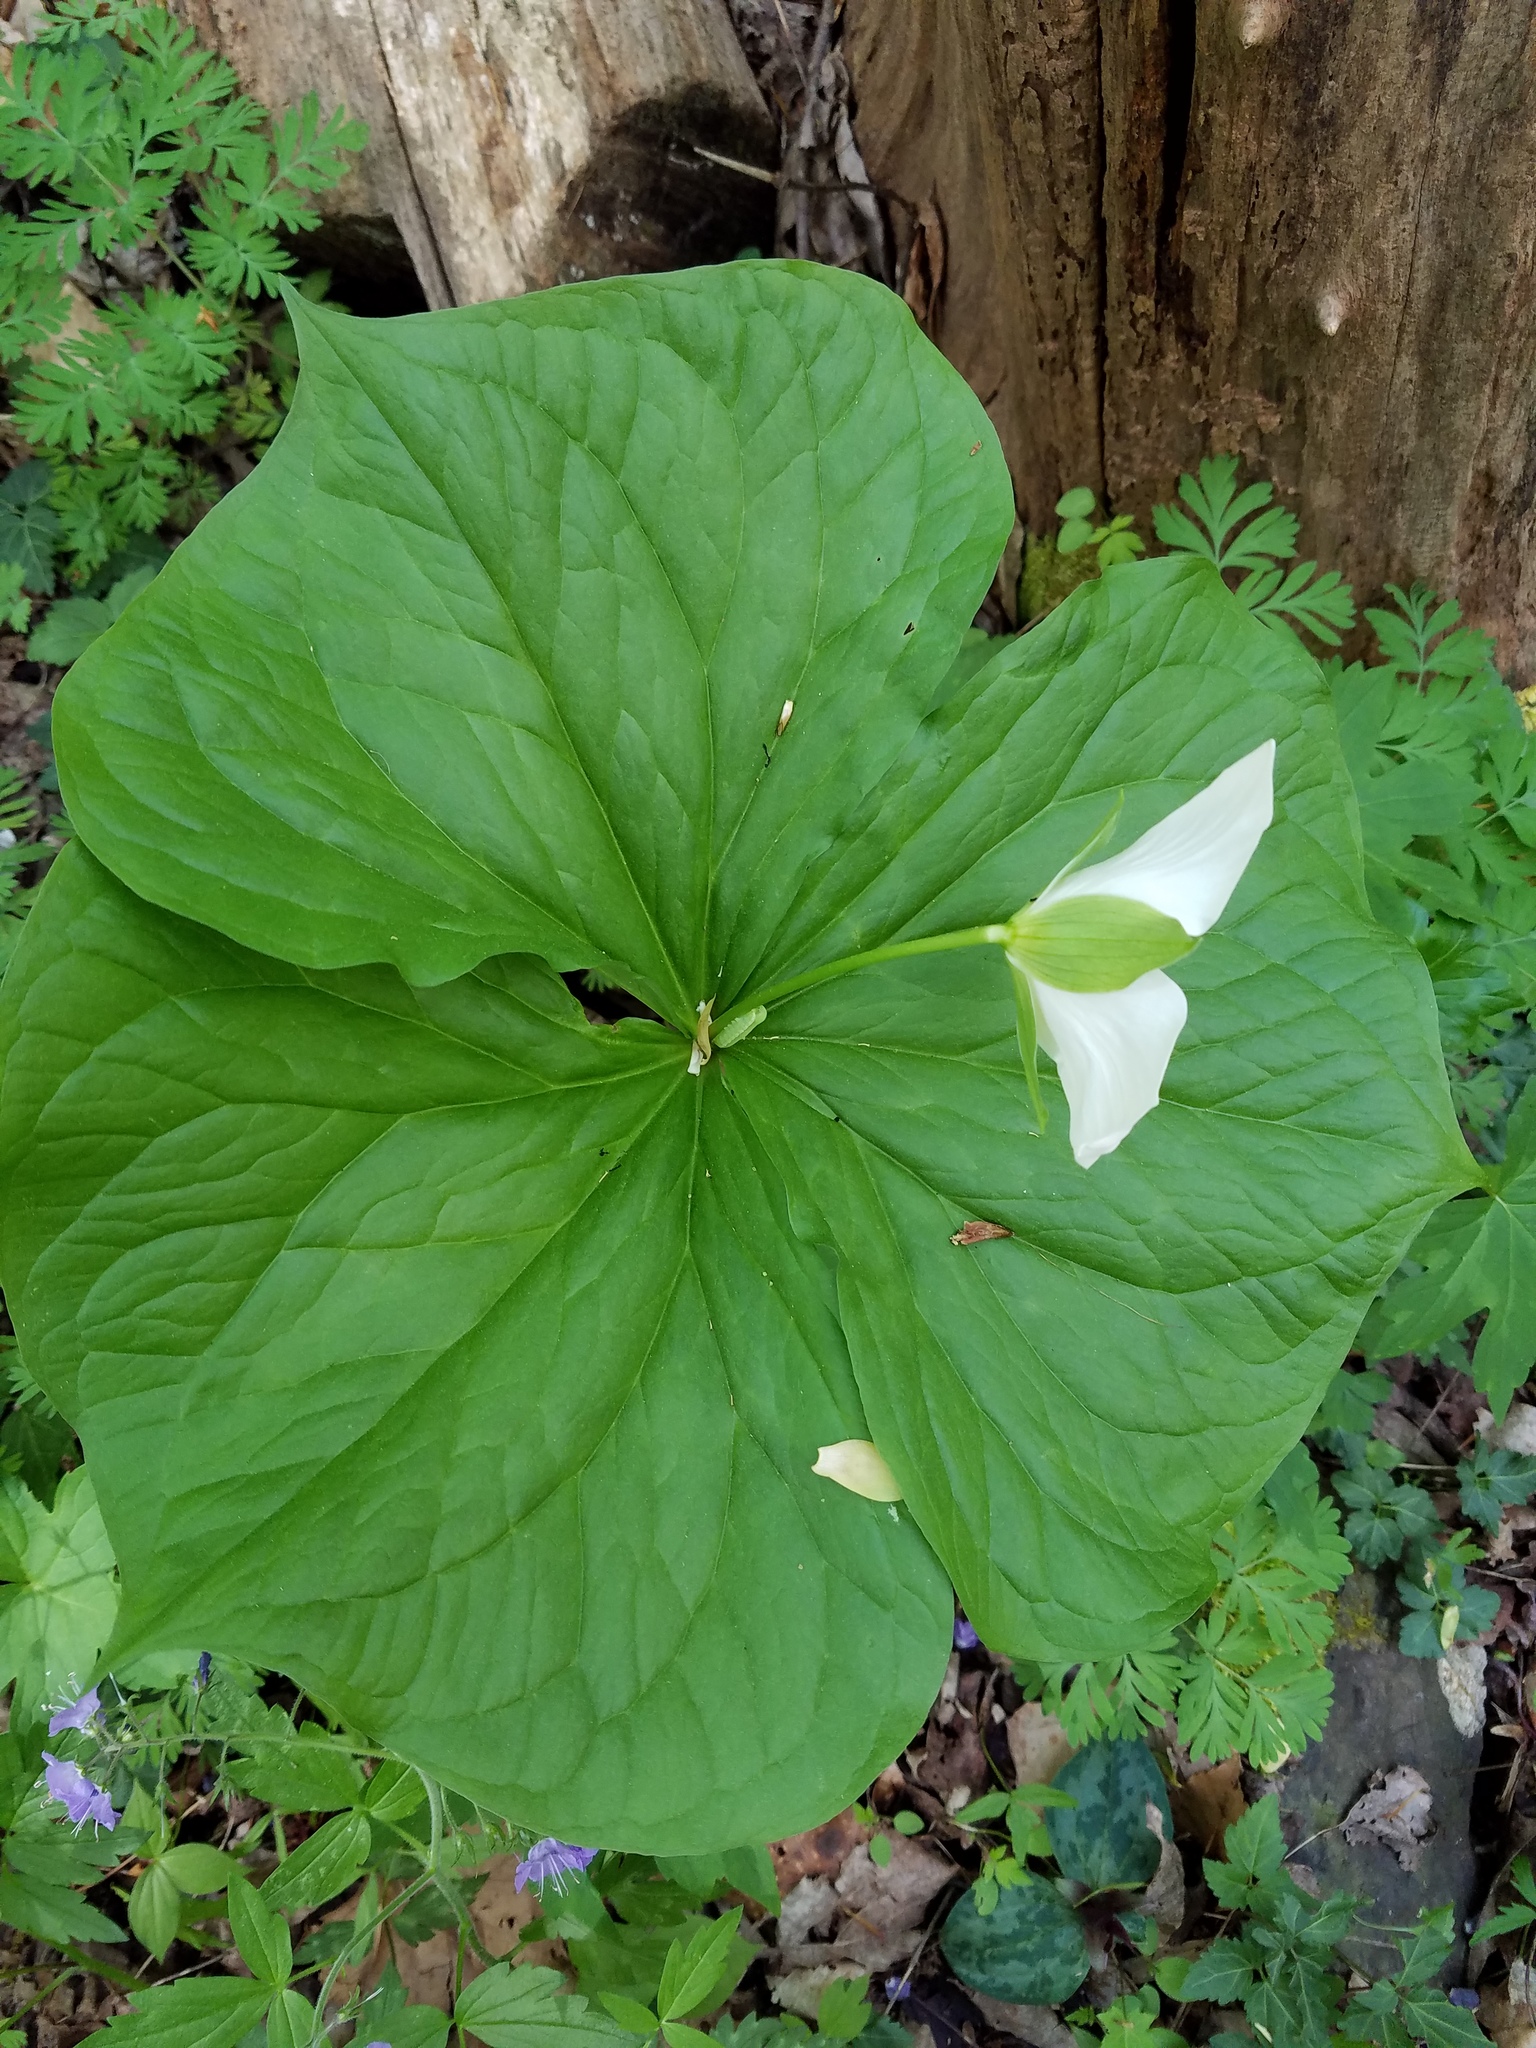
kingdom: Plantae
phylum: Tracheophyta
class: Liliopsida
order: Liliales
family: Melanthiaceae
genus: Trillium
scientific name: Trillium flexipes
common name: Drooping trillium
